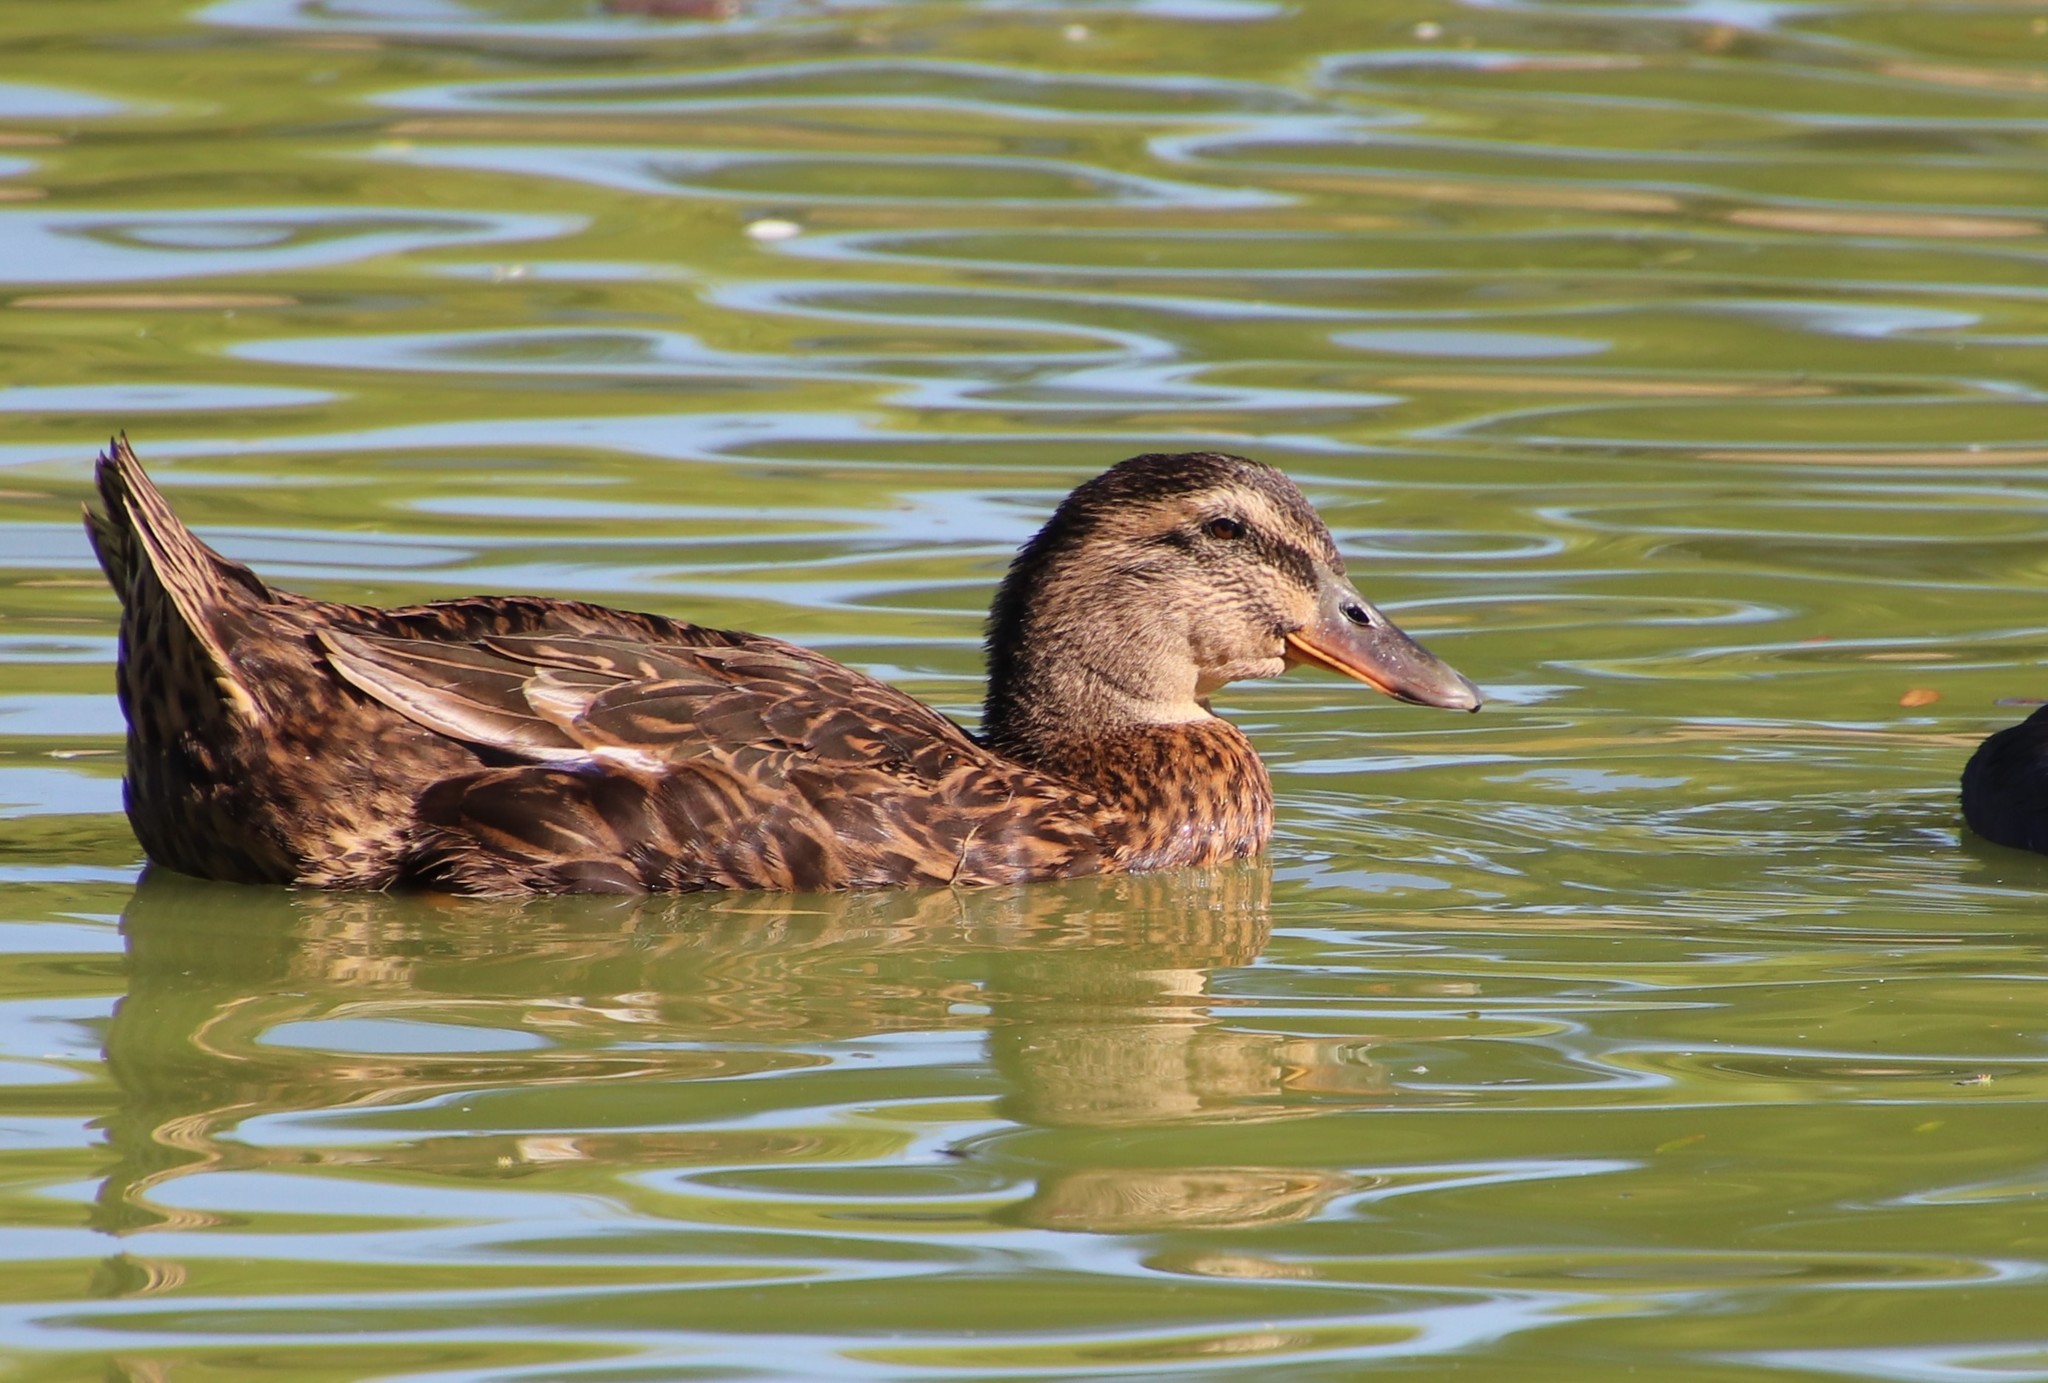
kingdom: Animalia
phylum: Chordata
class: Aves
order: Anseriformes
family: Anatidae
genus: Anas
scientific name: Anas platyrhynchos
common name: Mallard
